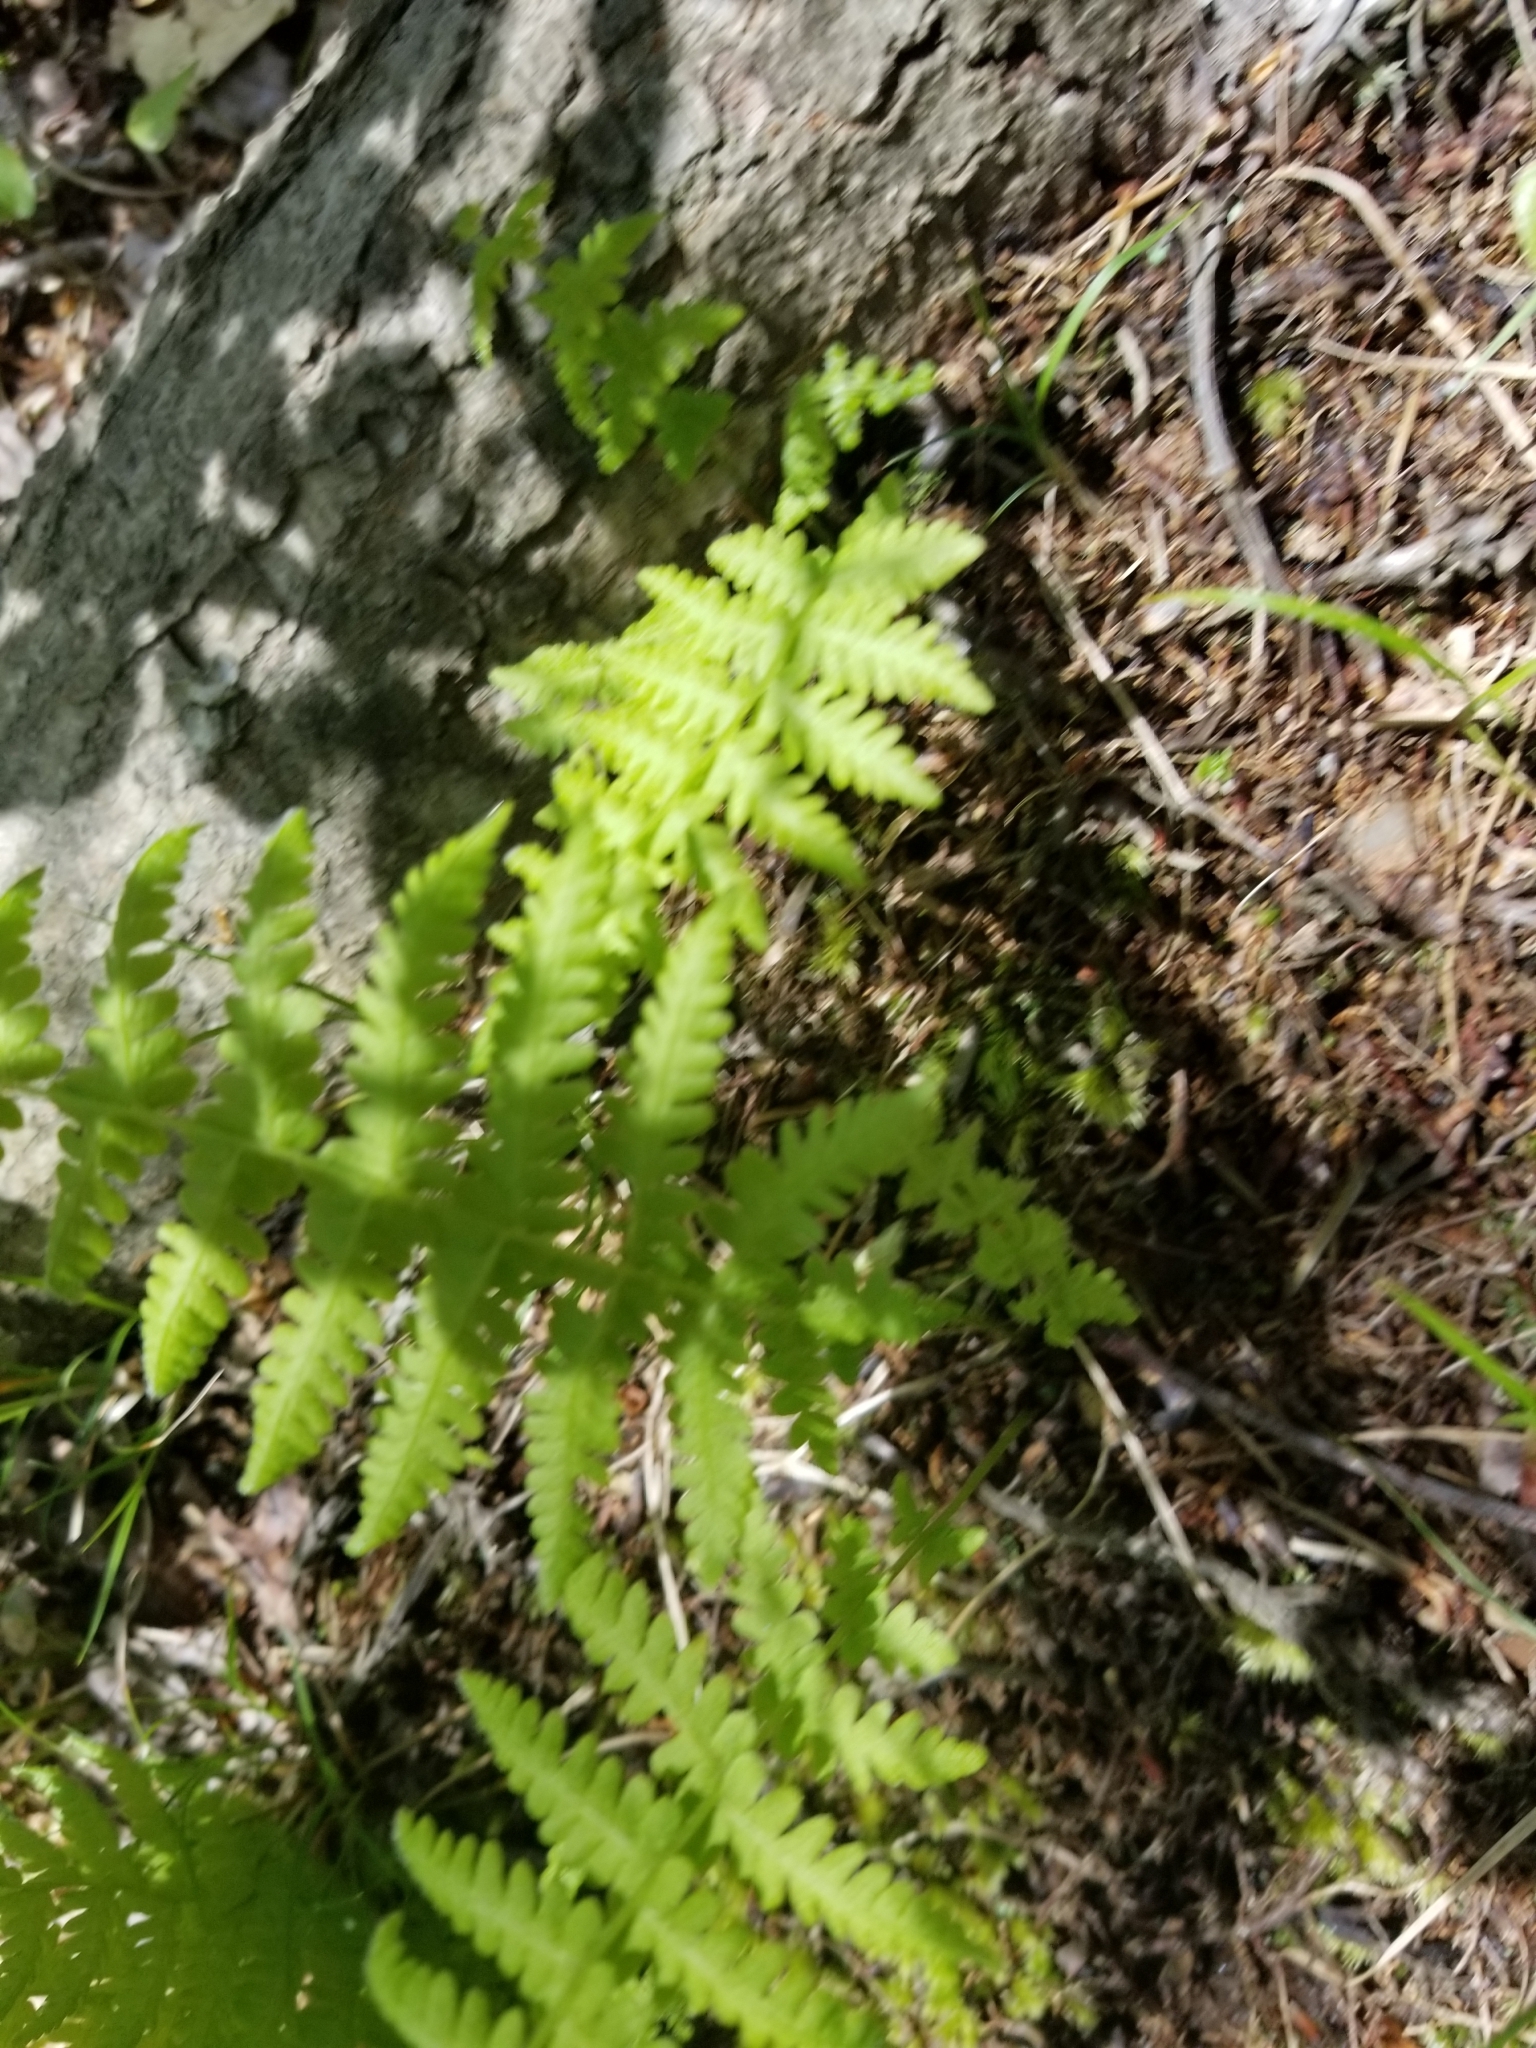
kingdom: Plantae
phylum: Tracheophyta
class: Polypodiopsida
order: Polypodiales
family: Thelypteridaceae
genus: Amauropelta
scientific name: Amauropelta noveboracensis
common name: New york fern
